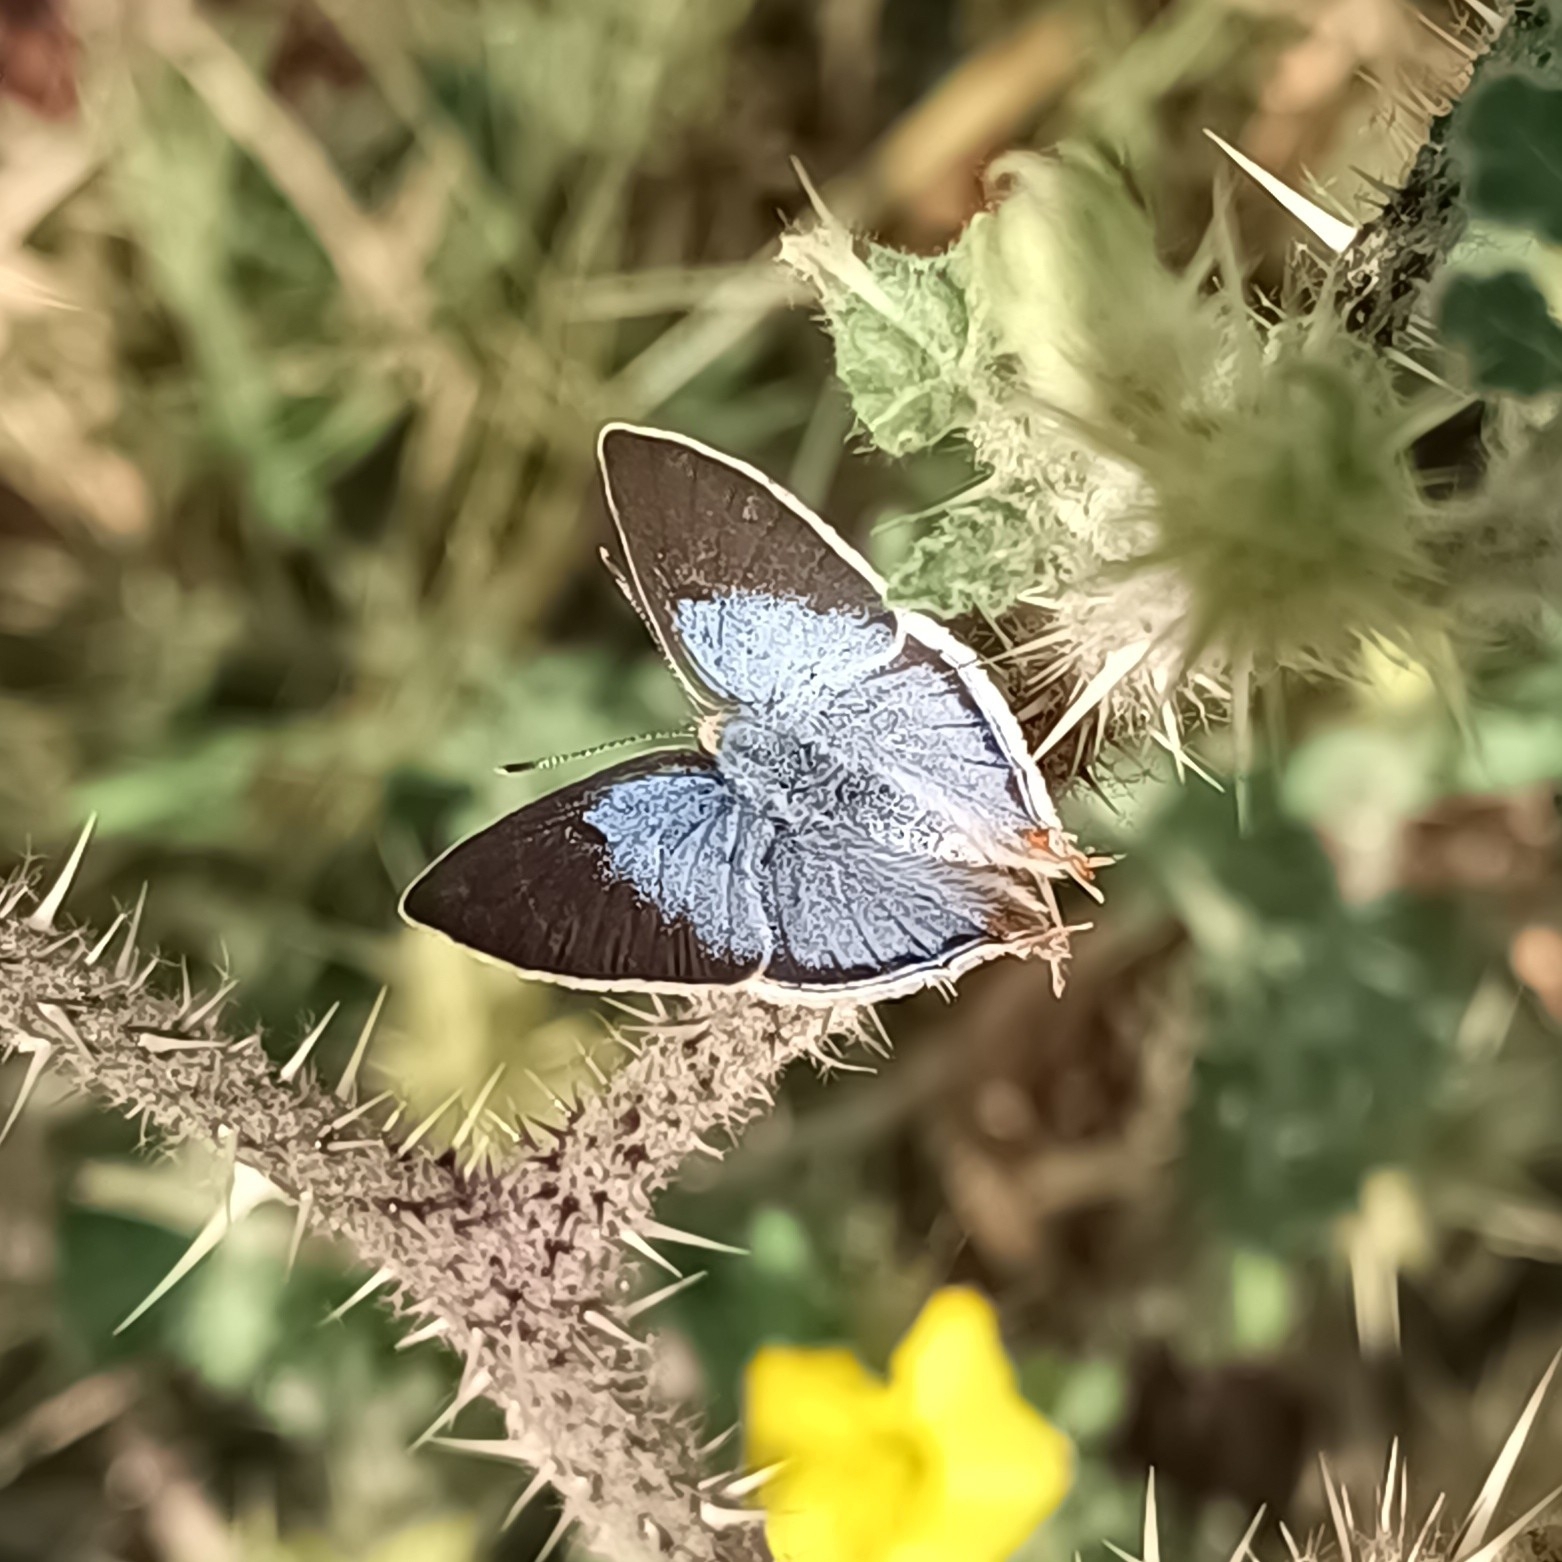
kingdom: Animalia
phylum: Arthropoda
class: Insecta
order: Lepidoptera
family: Lycaenidae
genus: Dolymorpha
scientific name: Dolymorpha jada
